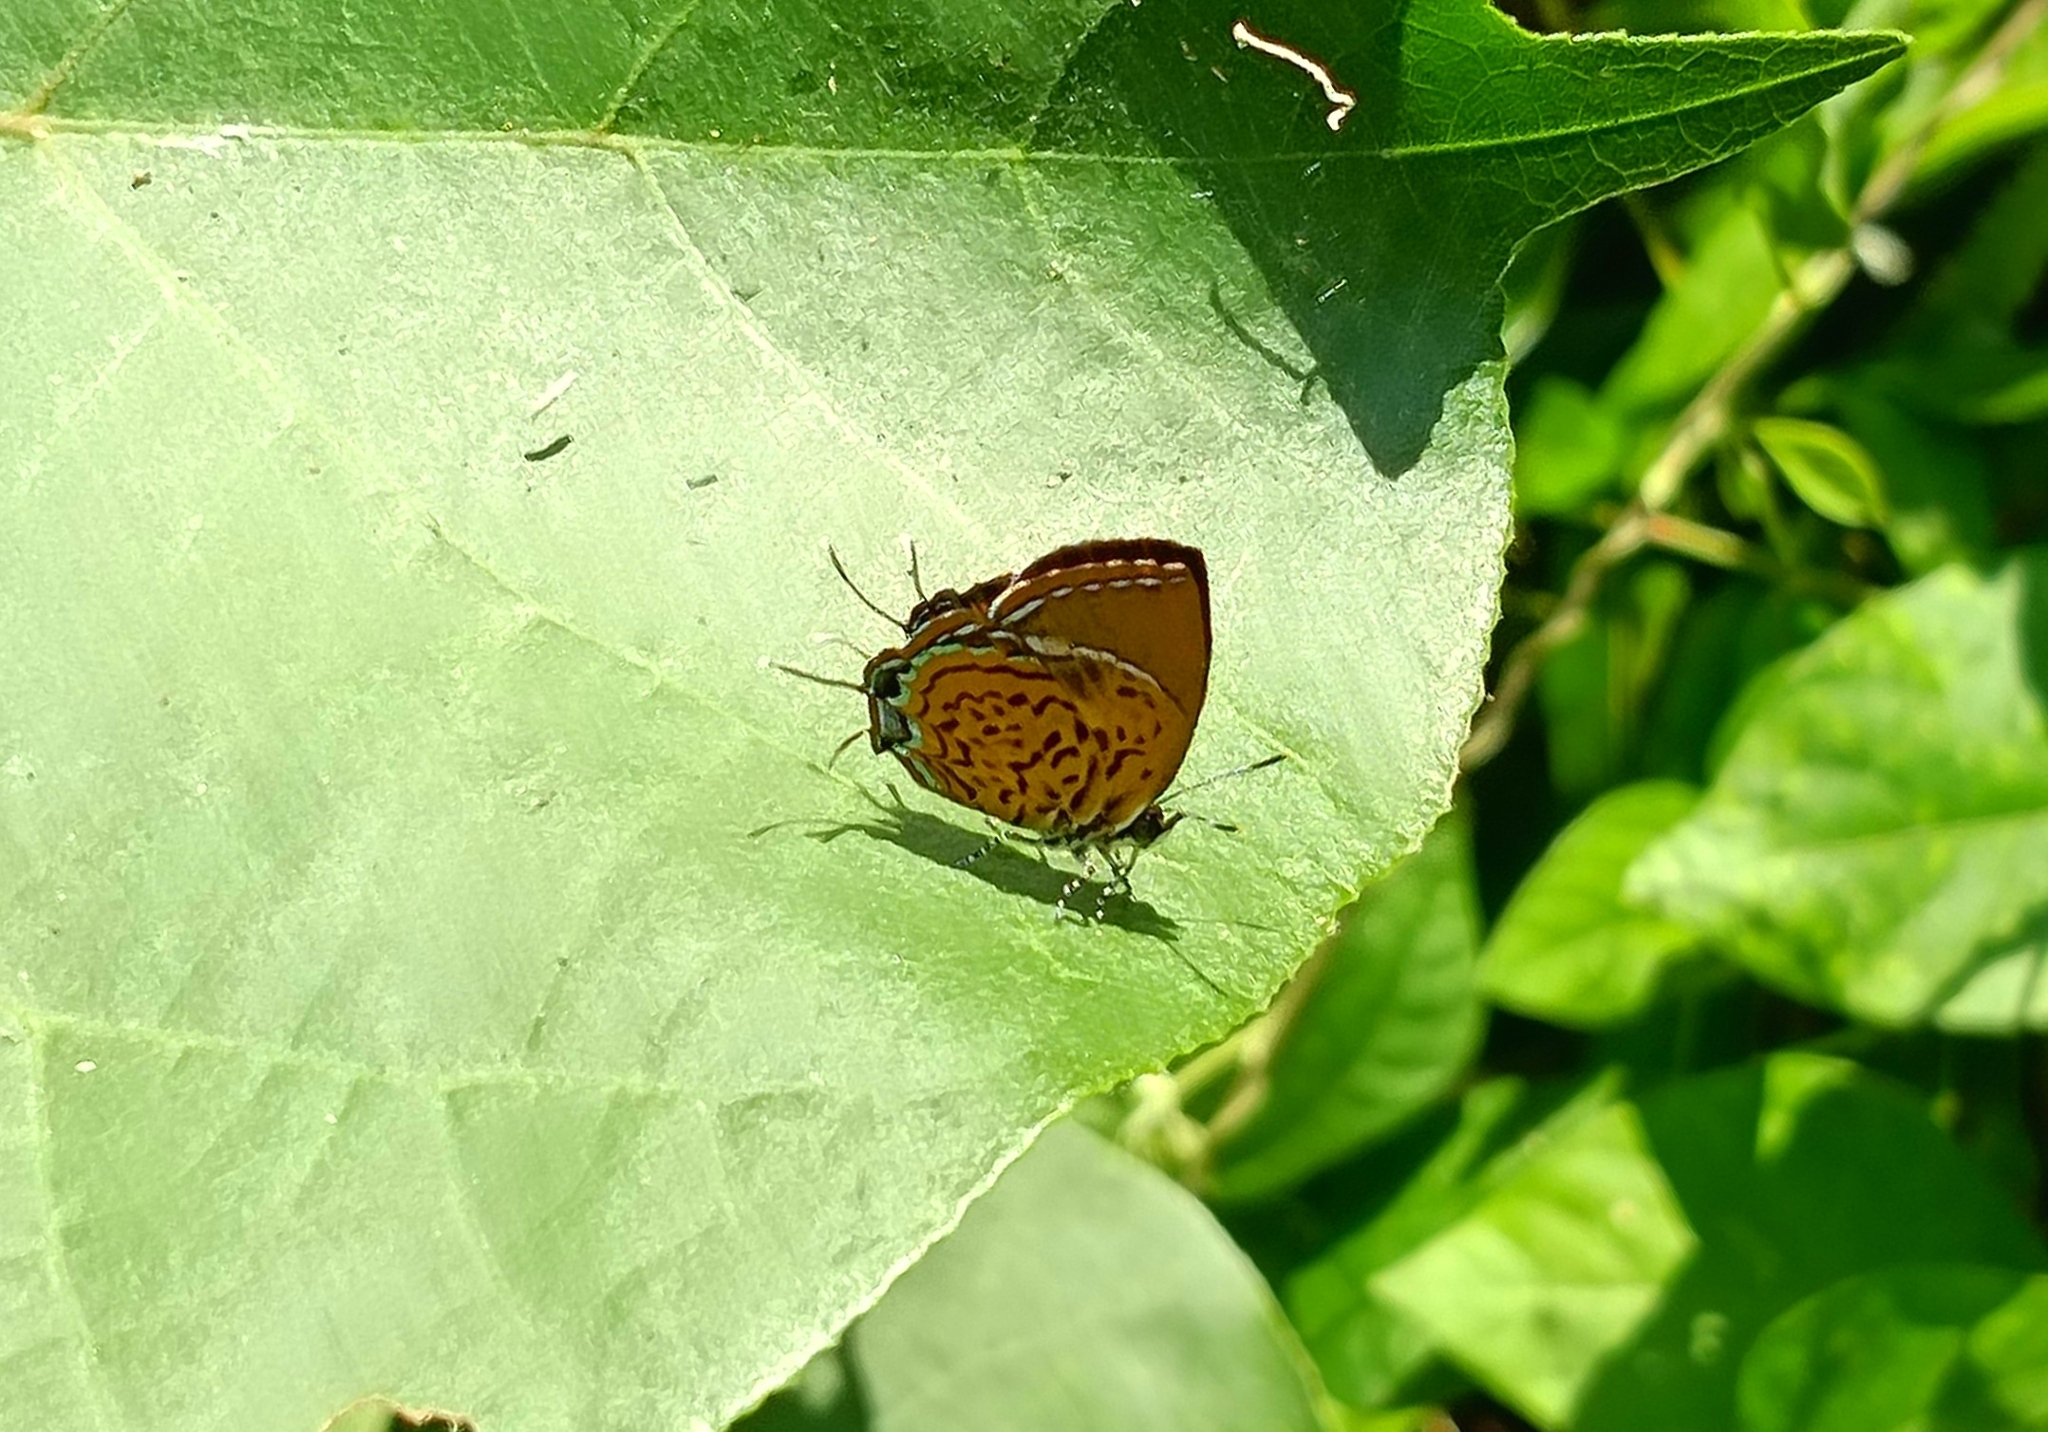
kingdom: Animalia
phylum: Arthropoda
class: Insecta
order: Lepidoptera
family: Lycaenidae
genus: Rathinda
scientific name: Rathinda amor
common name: Monkey puzzle
